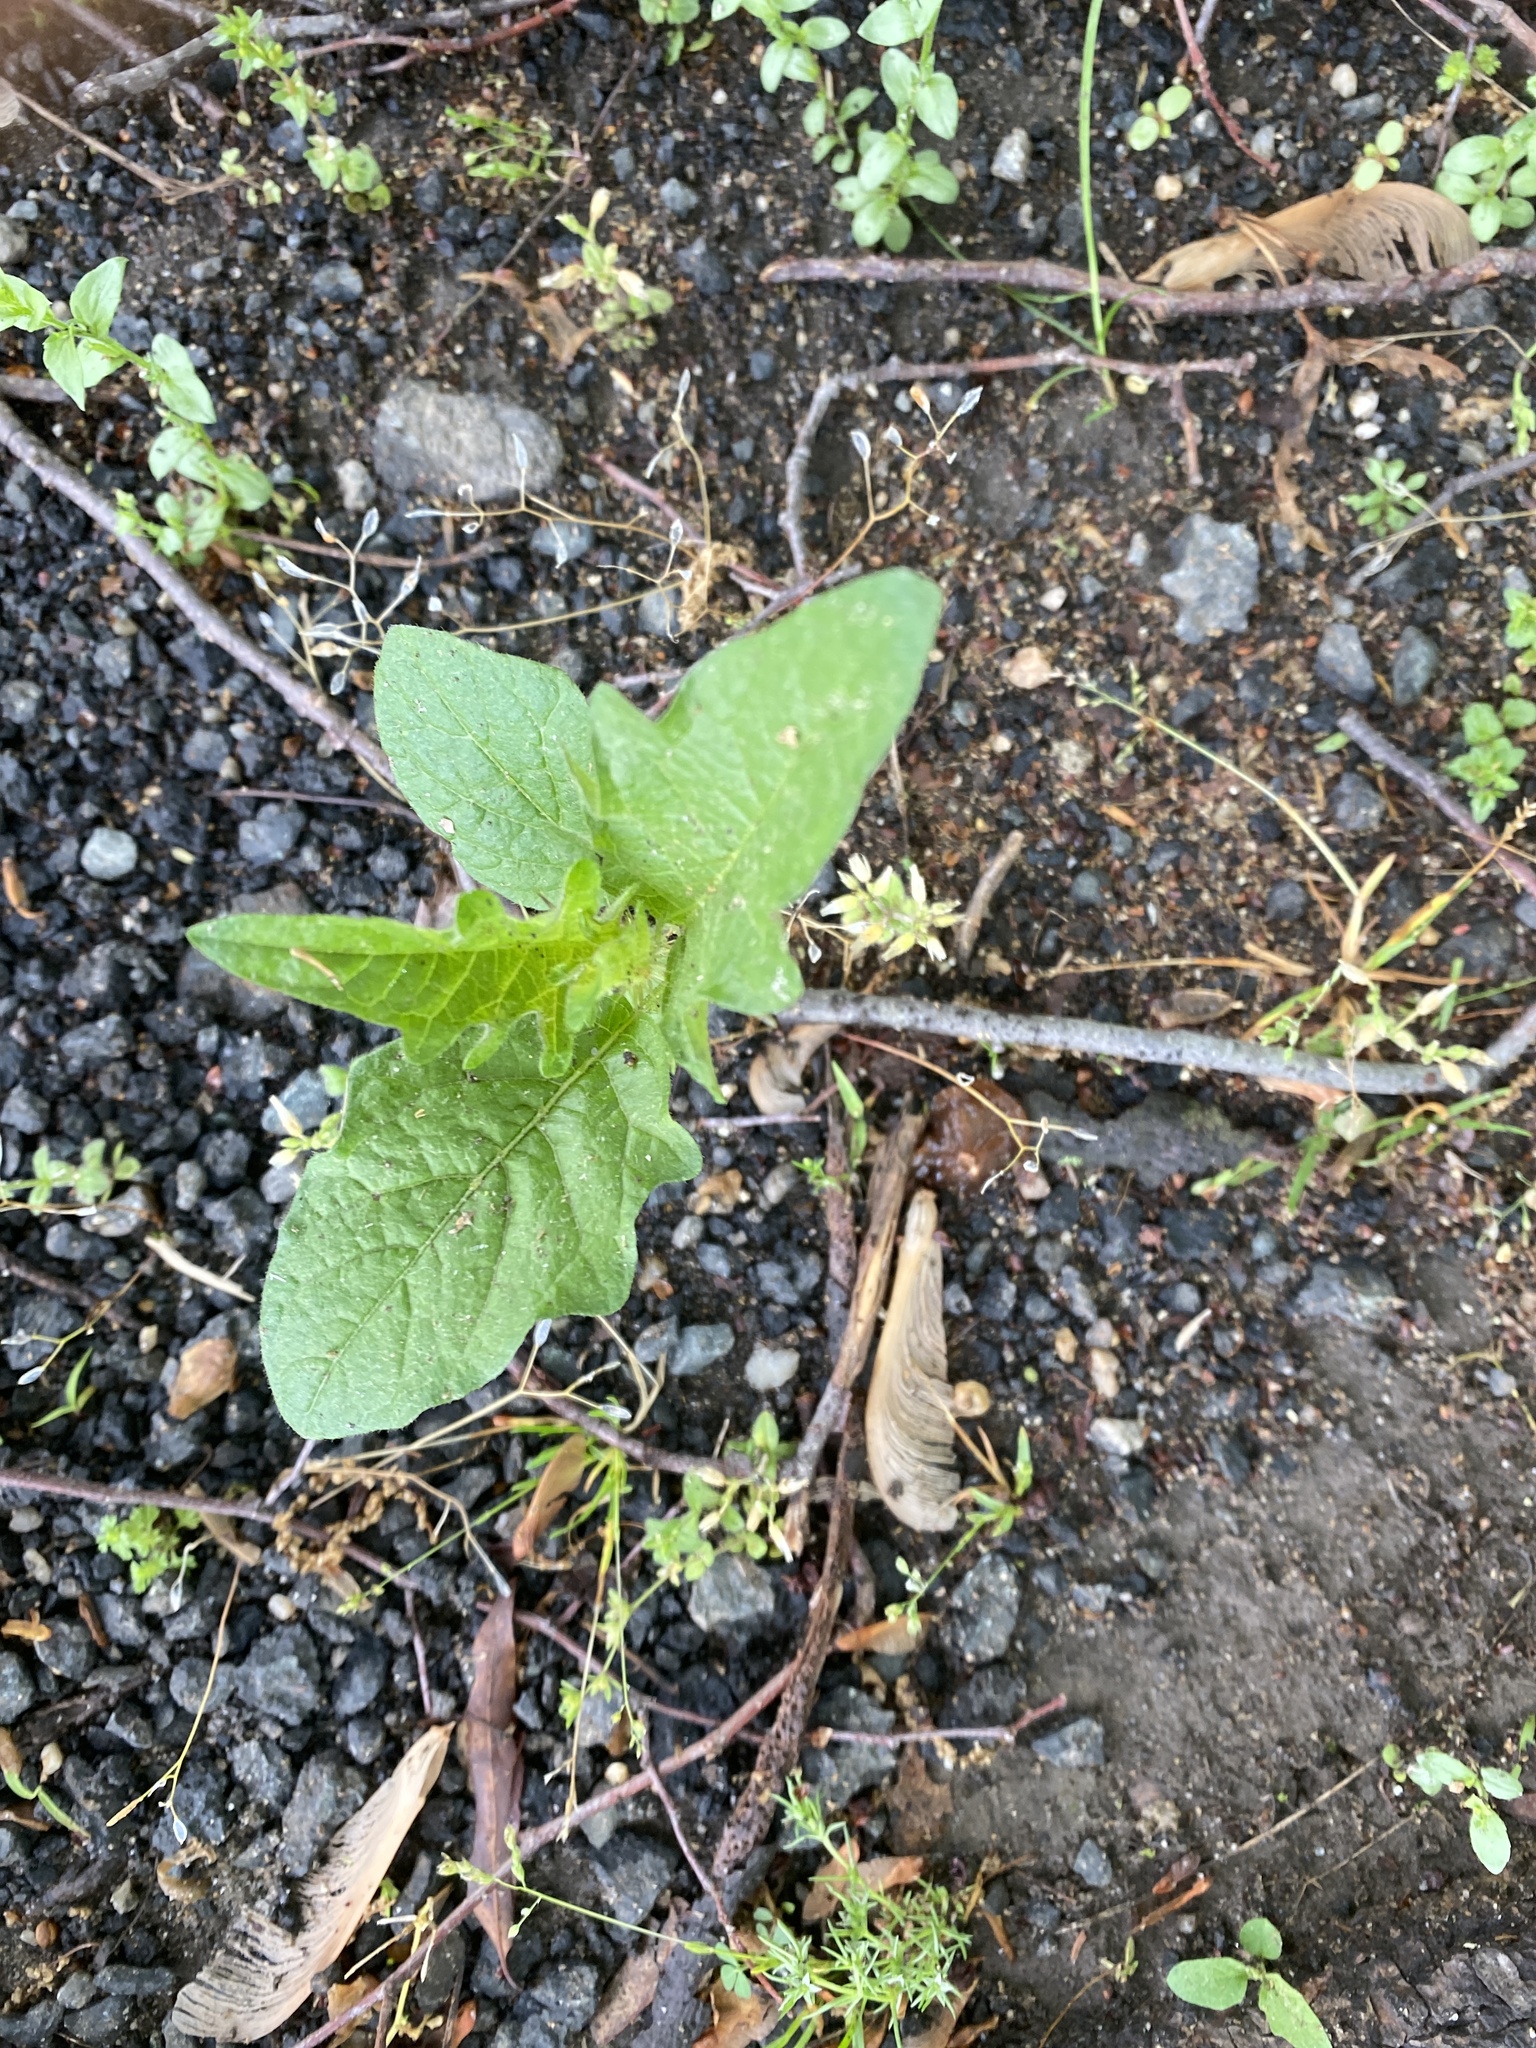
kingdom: Plantae
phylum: Tracheophyta
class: Magnoliopsida
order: Solanales
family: Solanaceae
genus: Solanum
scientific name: Solanum carolinense
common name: Horse-nettle
